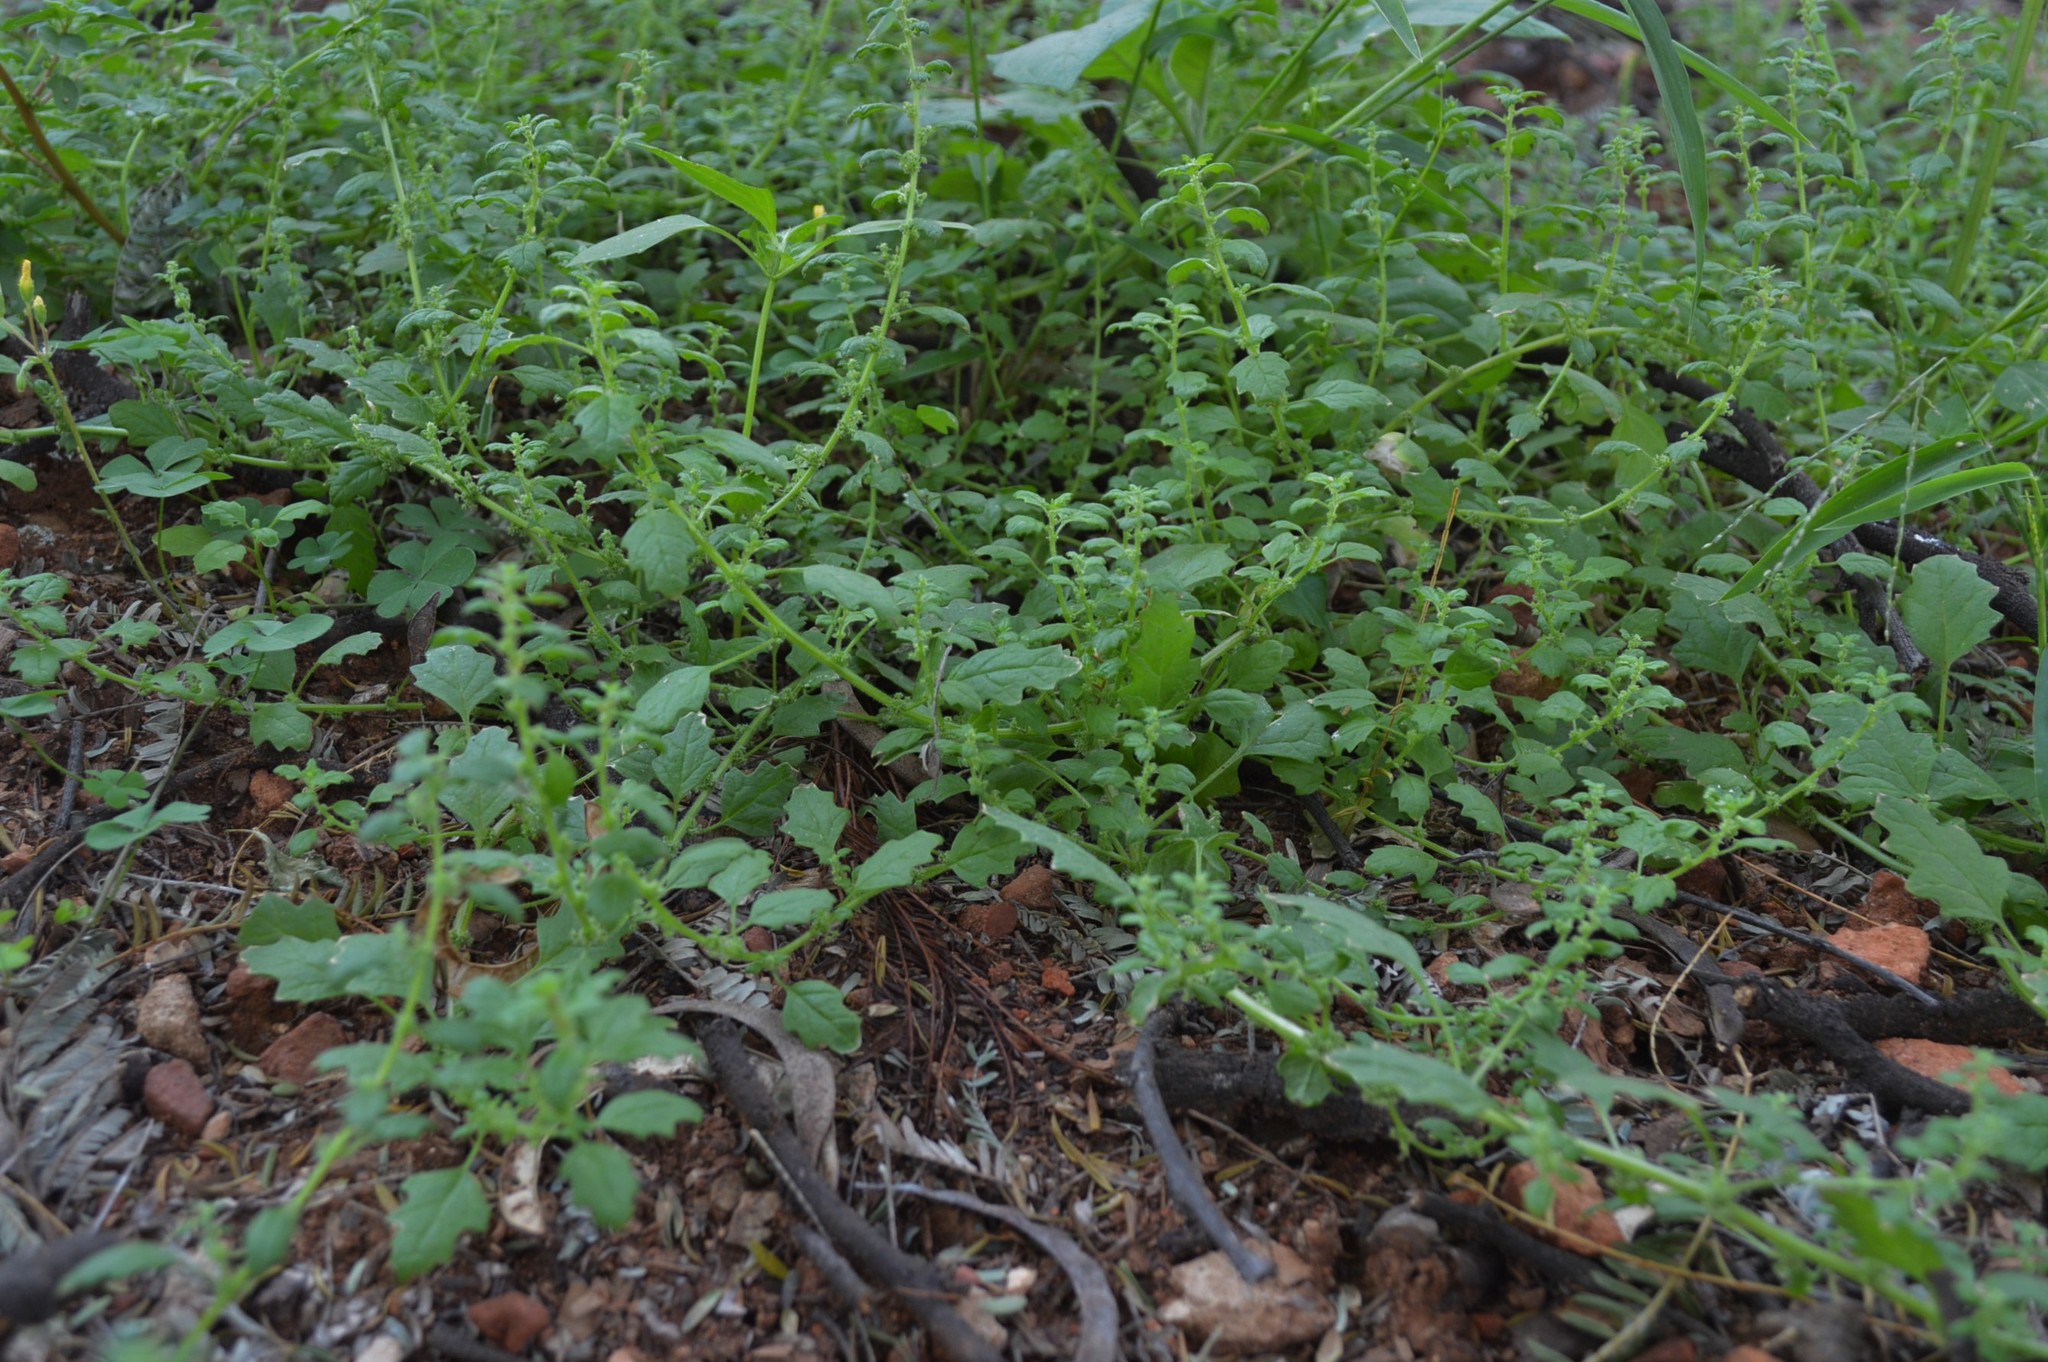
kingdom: Plantae
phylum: Tracheophyta
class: Magnoliopsida
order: Caryophyllales
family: Amaranthaceae
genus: Dysphania
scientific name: Dysphania carinata
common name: Keeled wormseed
